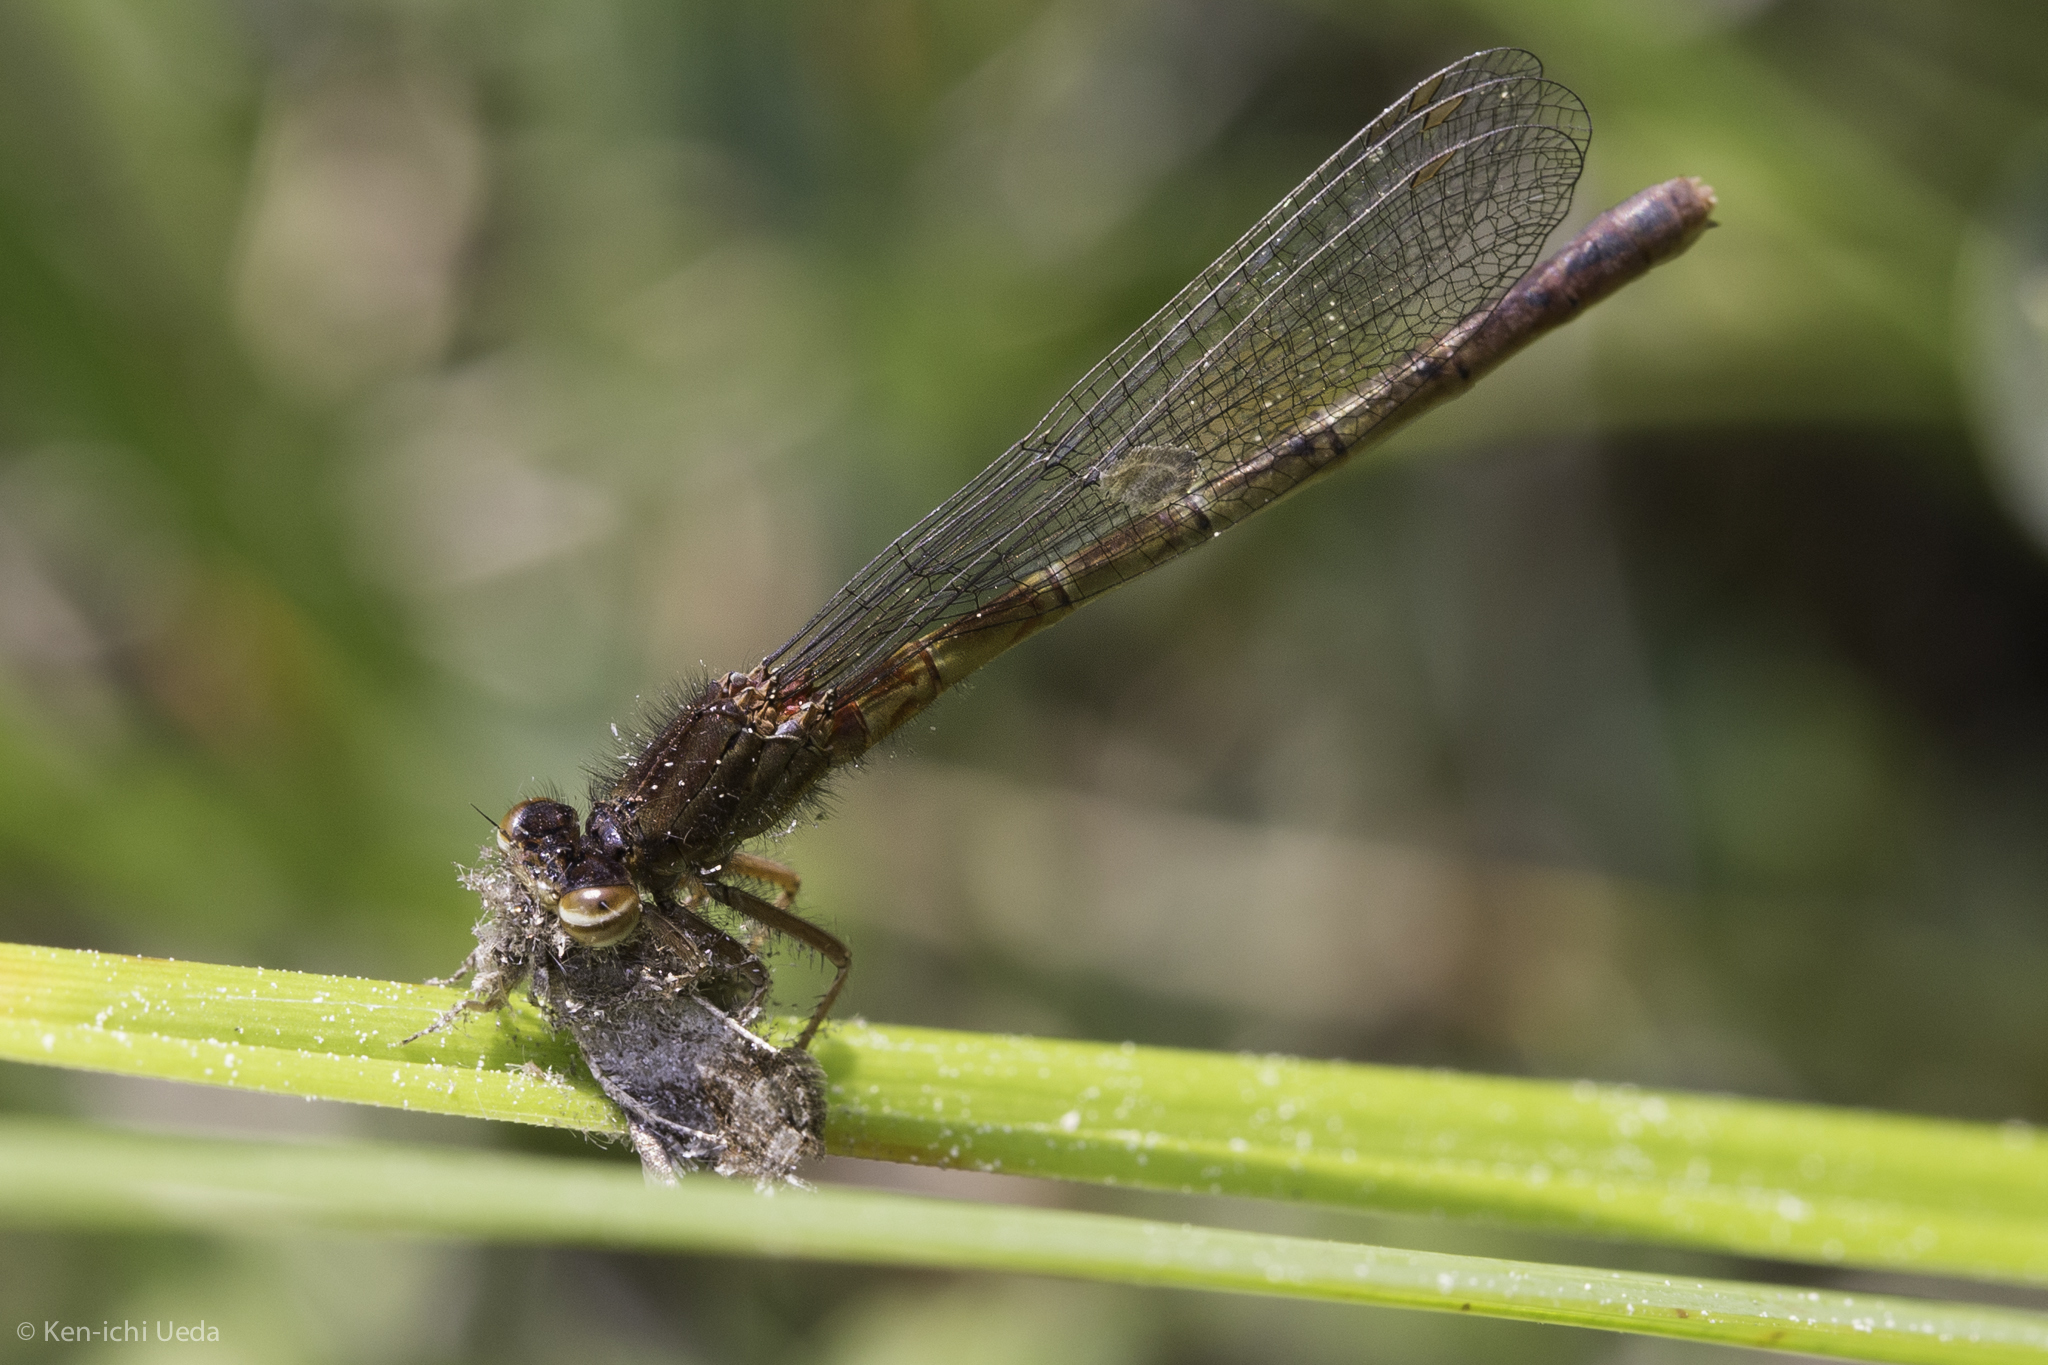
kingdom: Animalia
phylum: Arthropoda
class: Insecta
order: Odonata
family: Coenagrionidae
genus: Amphiagrion
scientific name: Amphiagrion abbreviatum
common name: Western red damsel
